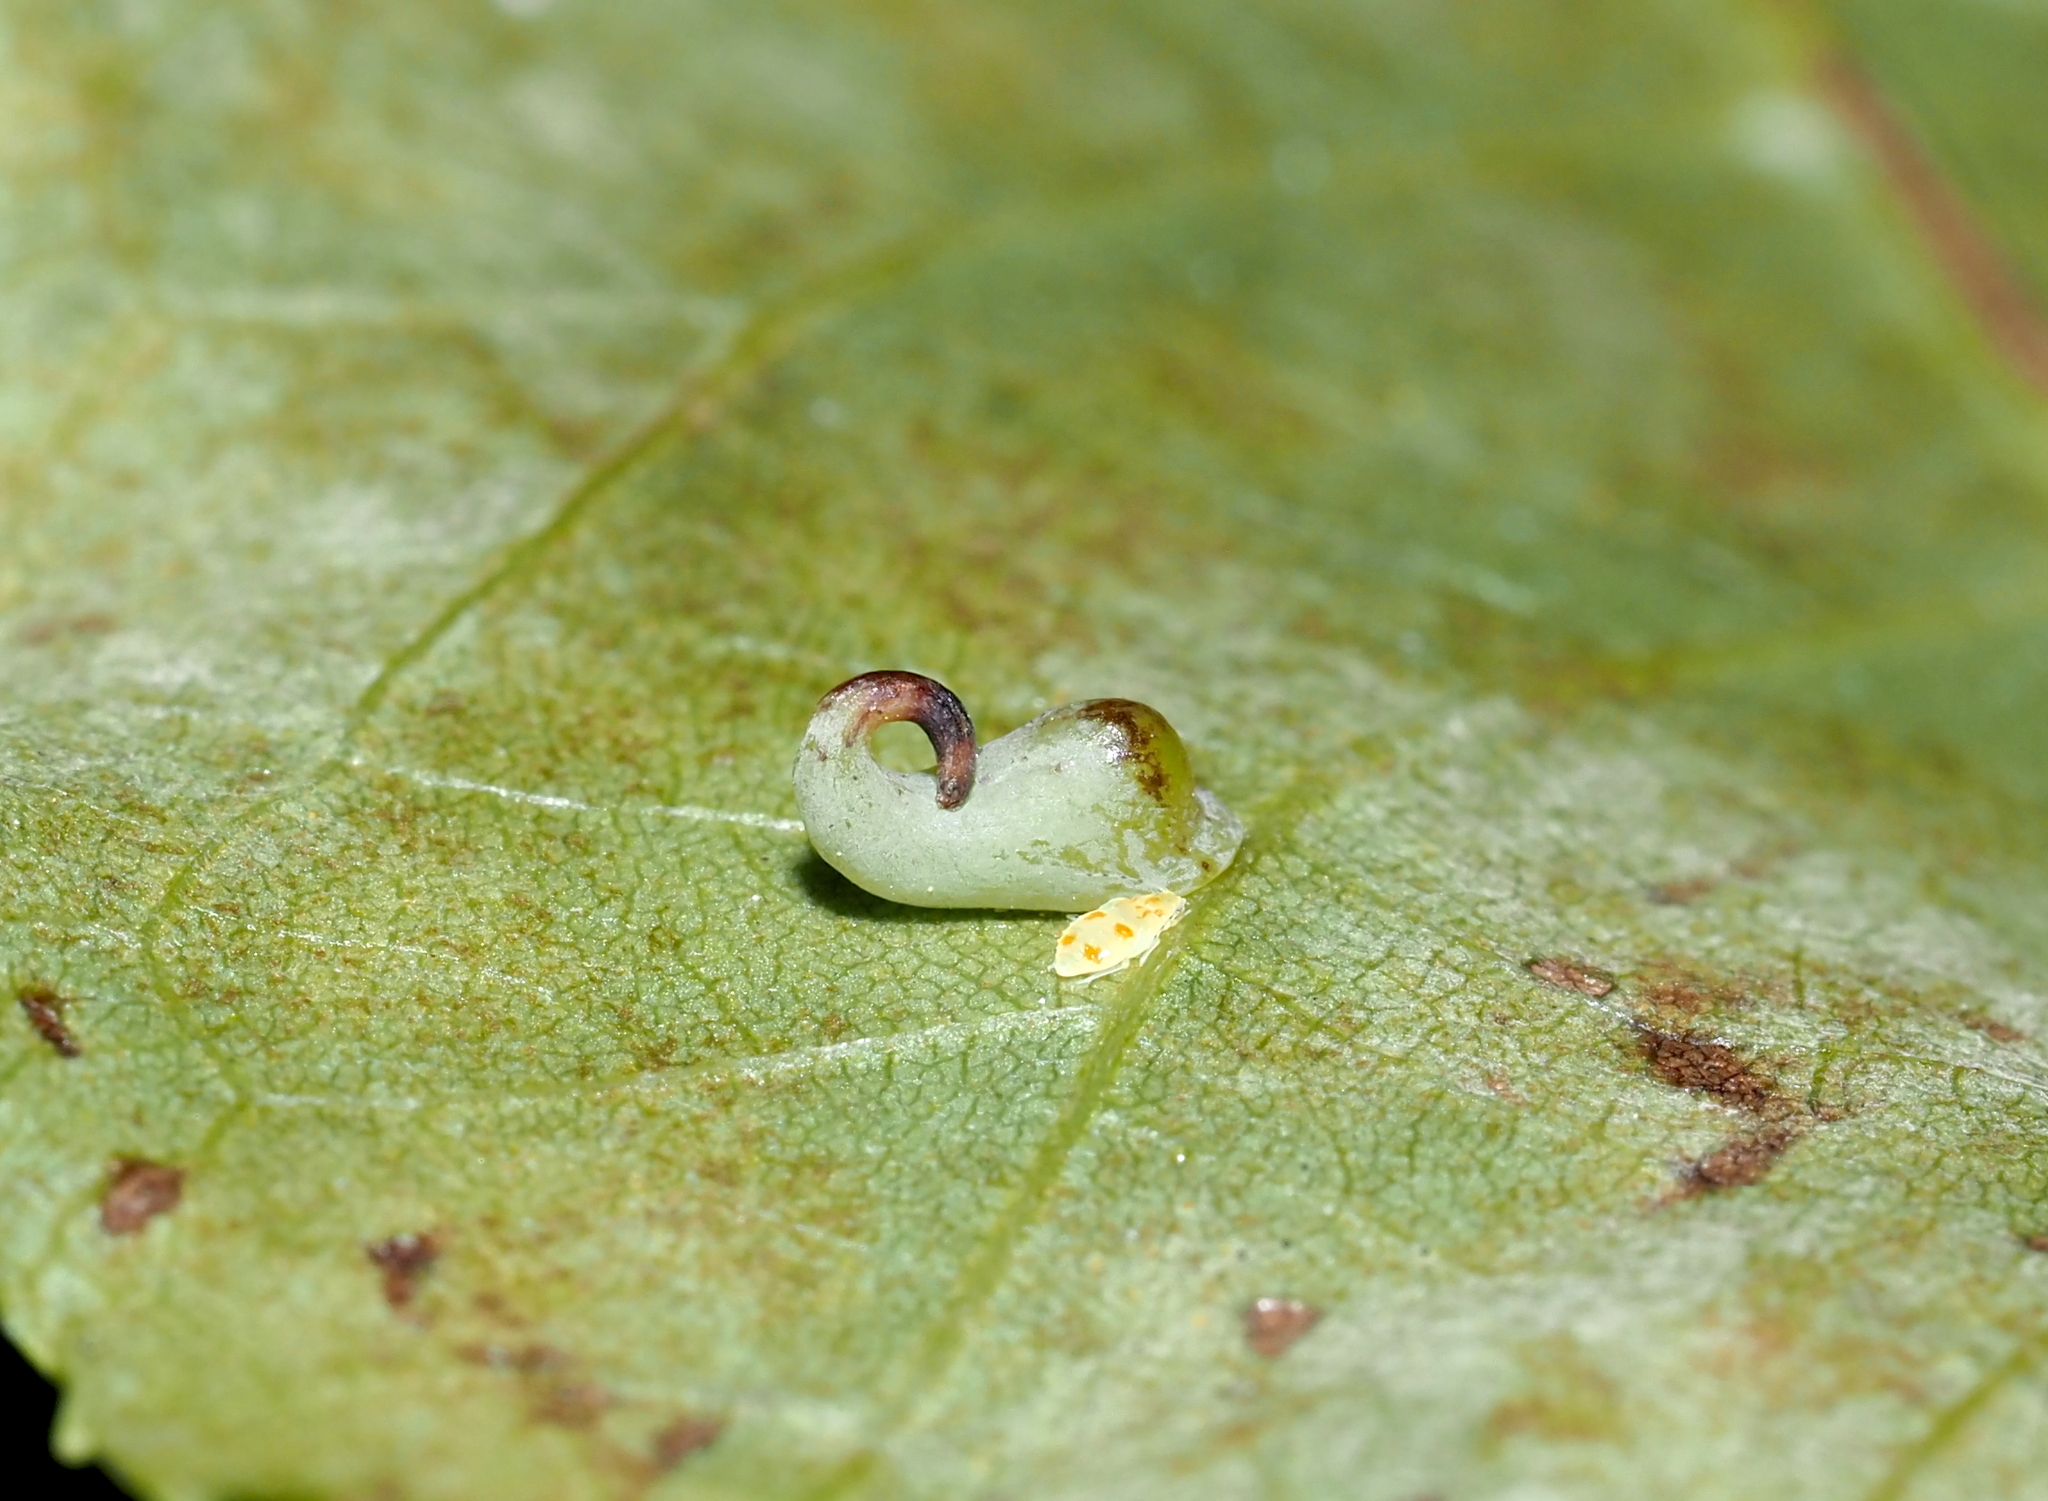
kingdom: Animalia
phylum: Arthropoda
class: Insecta
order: Diptera
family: Cecidomyiidae
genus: Caryomyia
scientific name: Caryomyia recurvata
